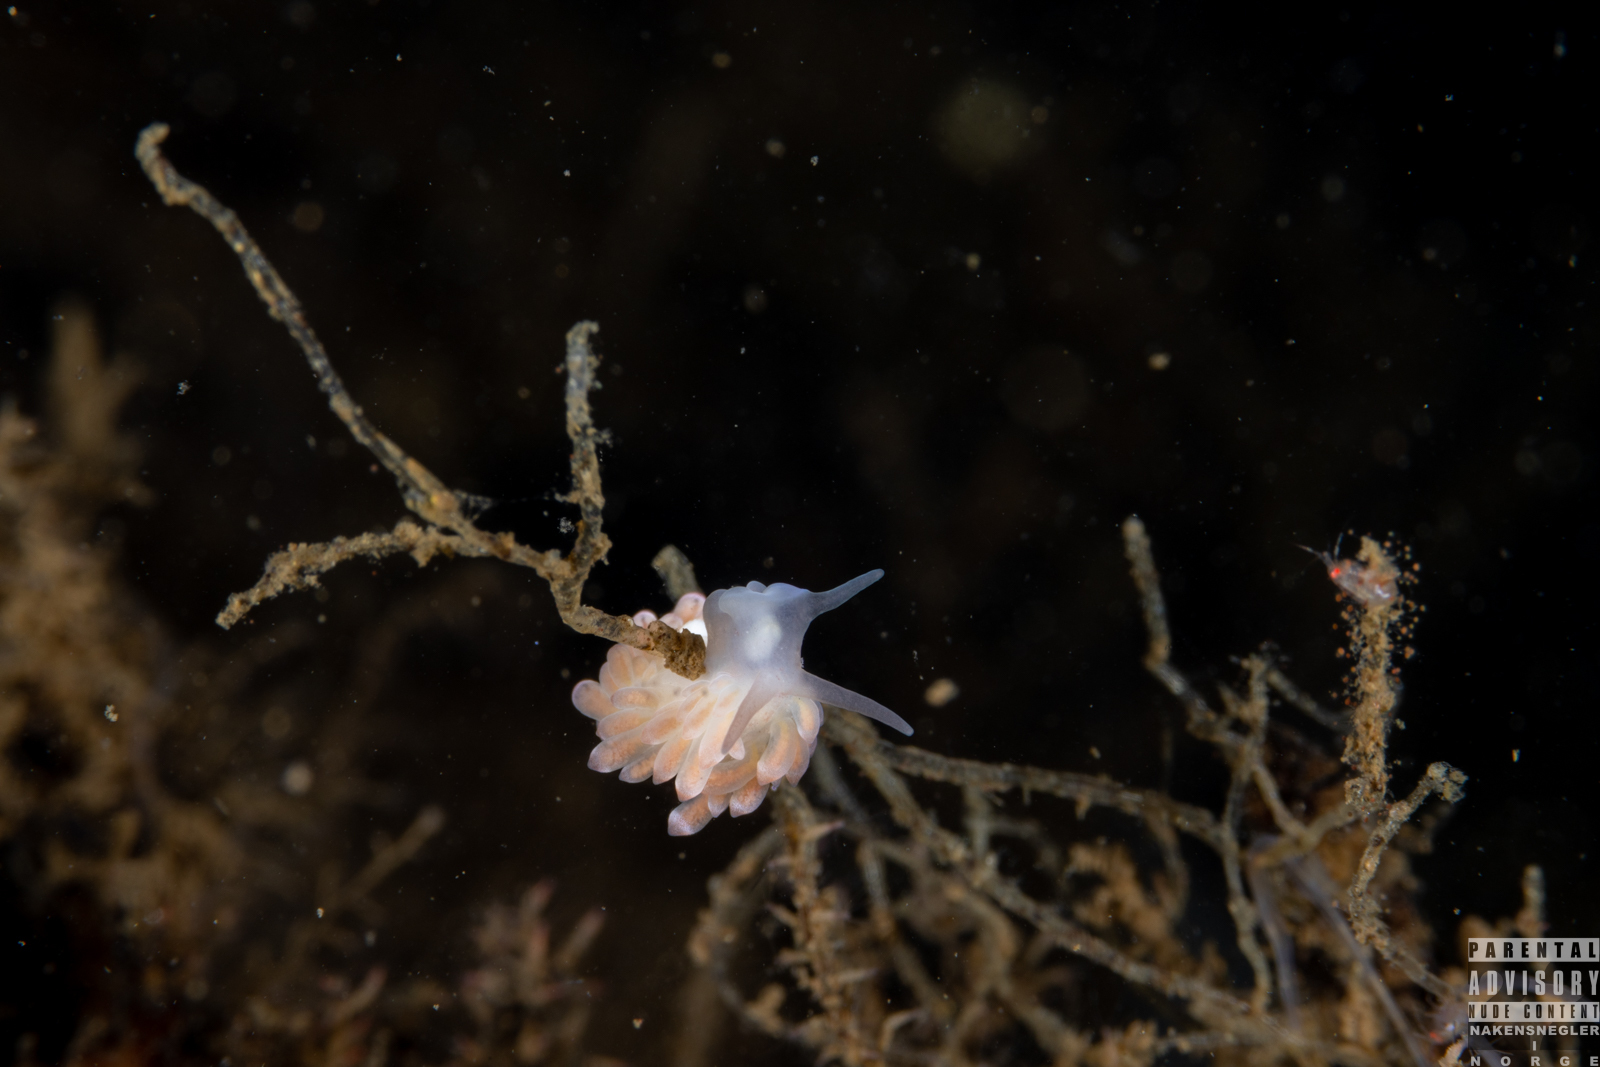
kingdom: Animalia
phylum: Mollusca
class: Gastropoda
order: Nudibranchia
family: Trinchesiidae
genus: Catriona
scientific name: Catriona aurantia
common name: Corange-tip cuthona
